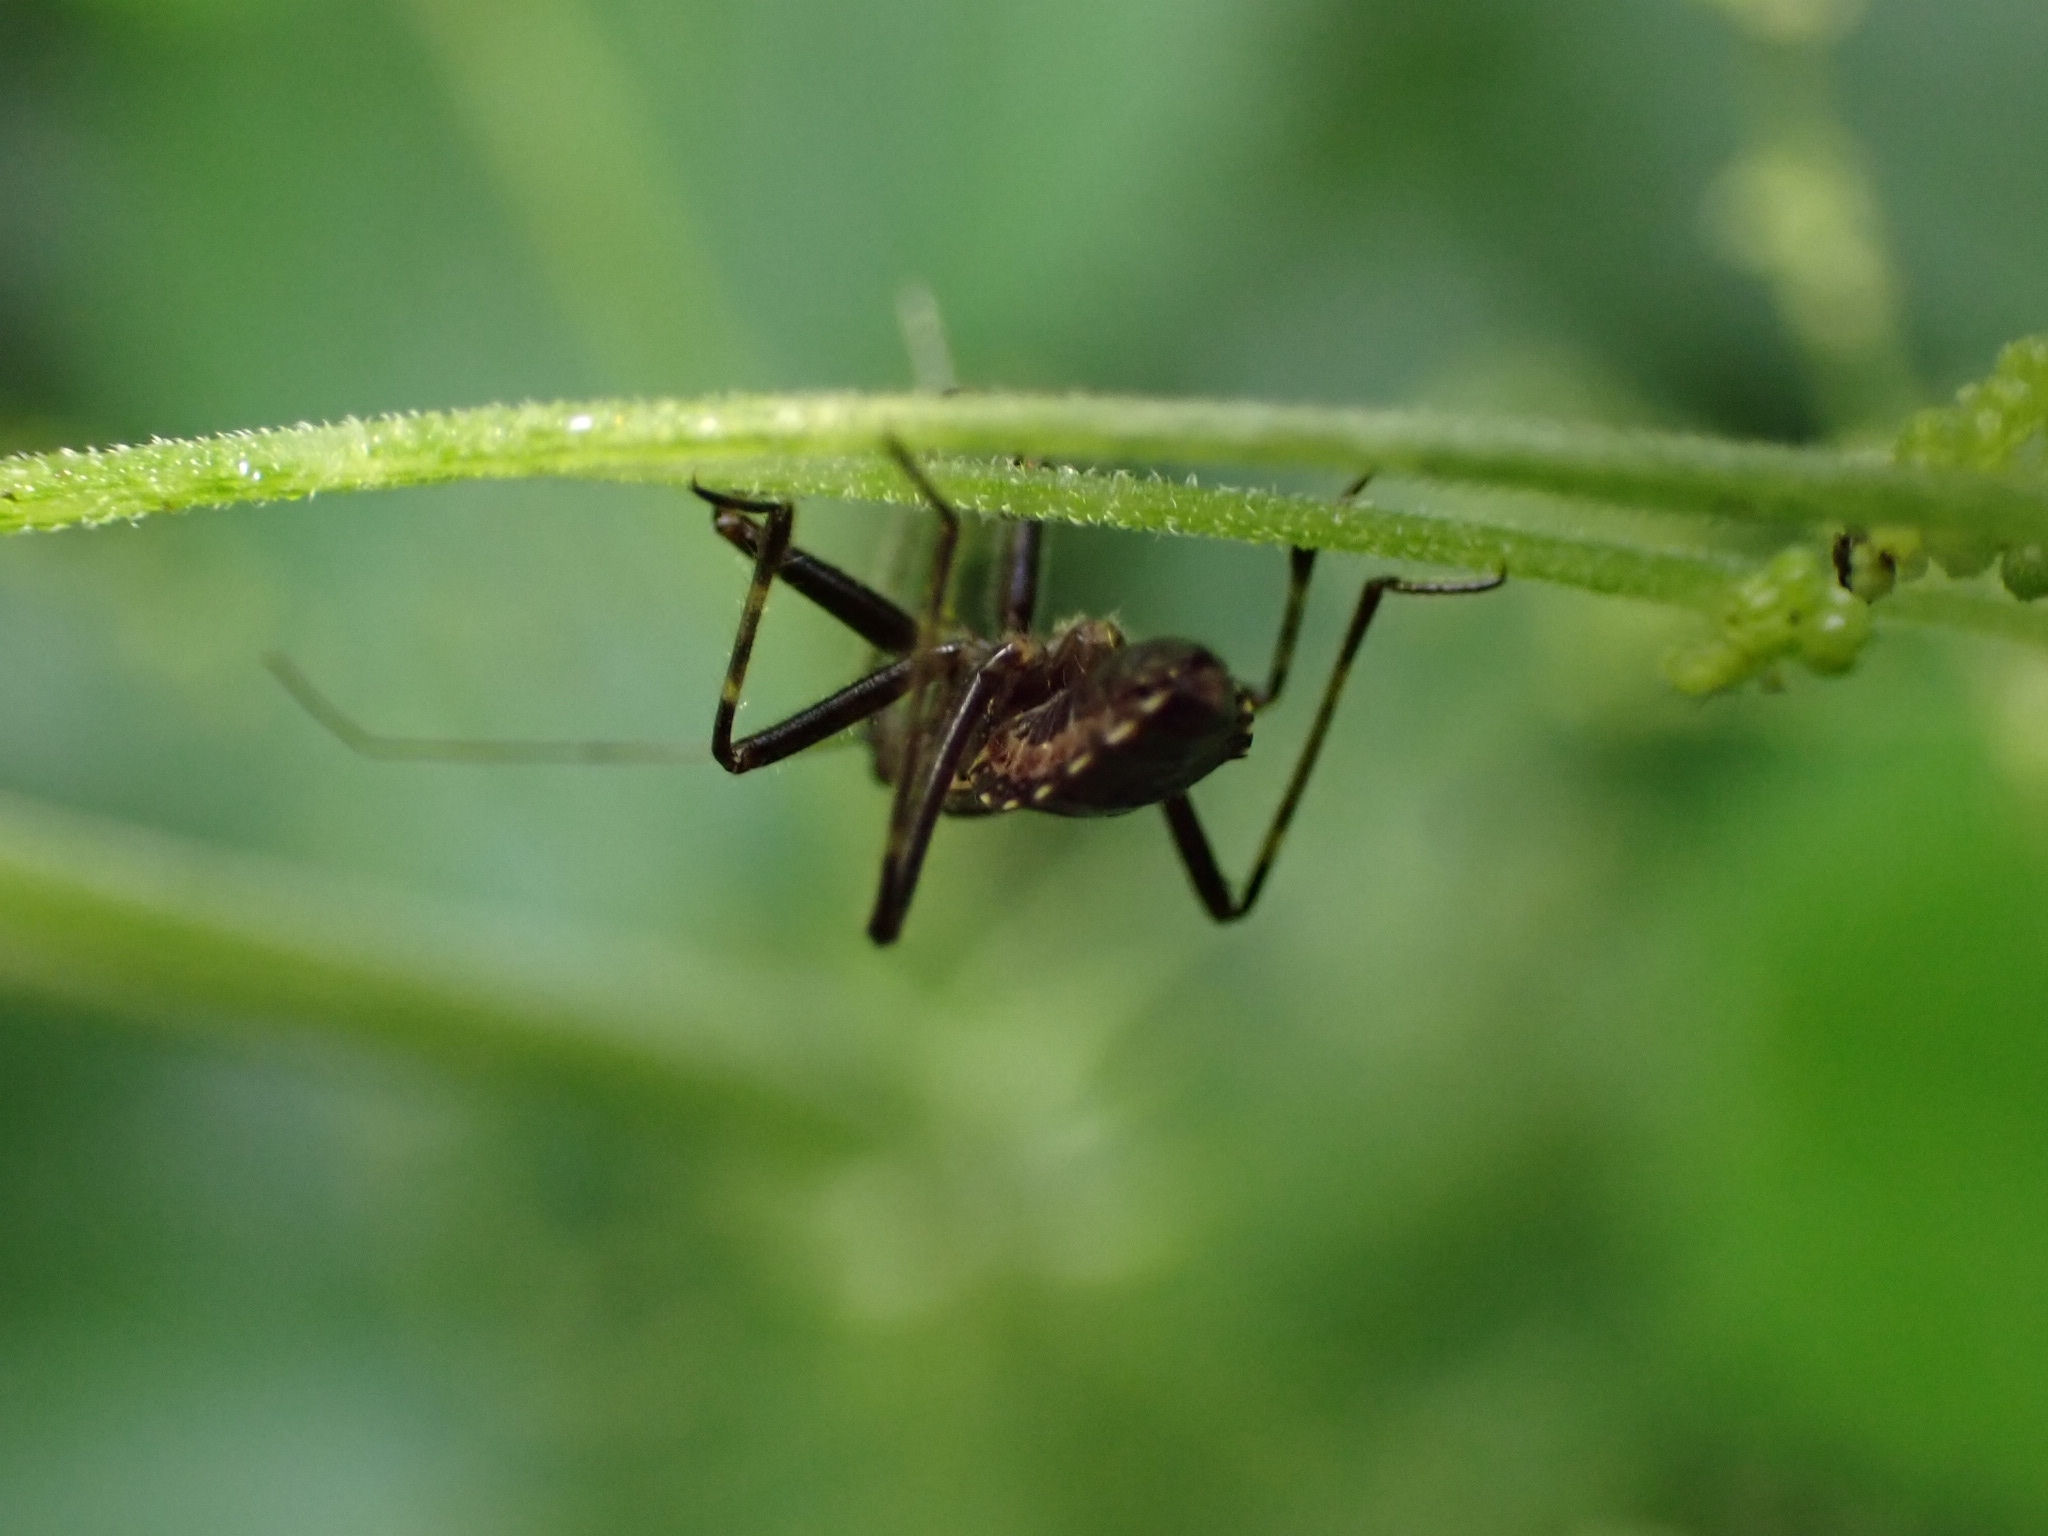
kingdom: Animalia
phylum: Arthropoda
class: Insecta
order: Hemiptera
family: Nabidae
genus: Himacerus
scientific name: Himacerus apterus
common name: Tree damsel bug
